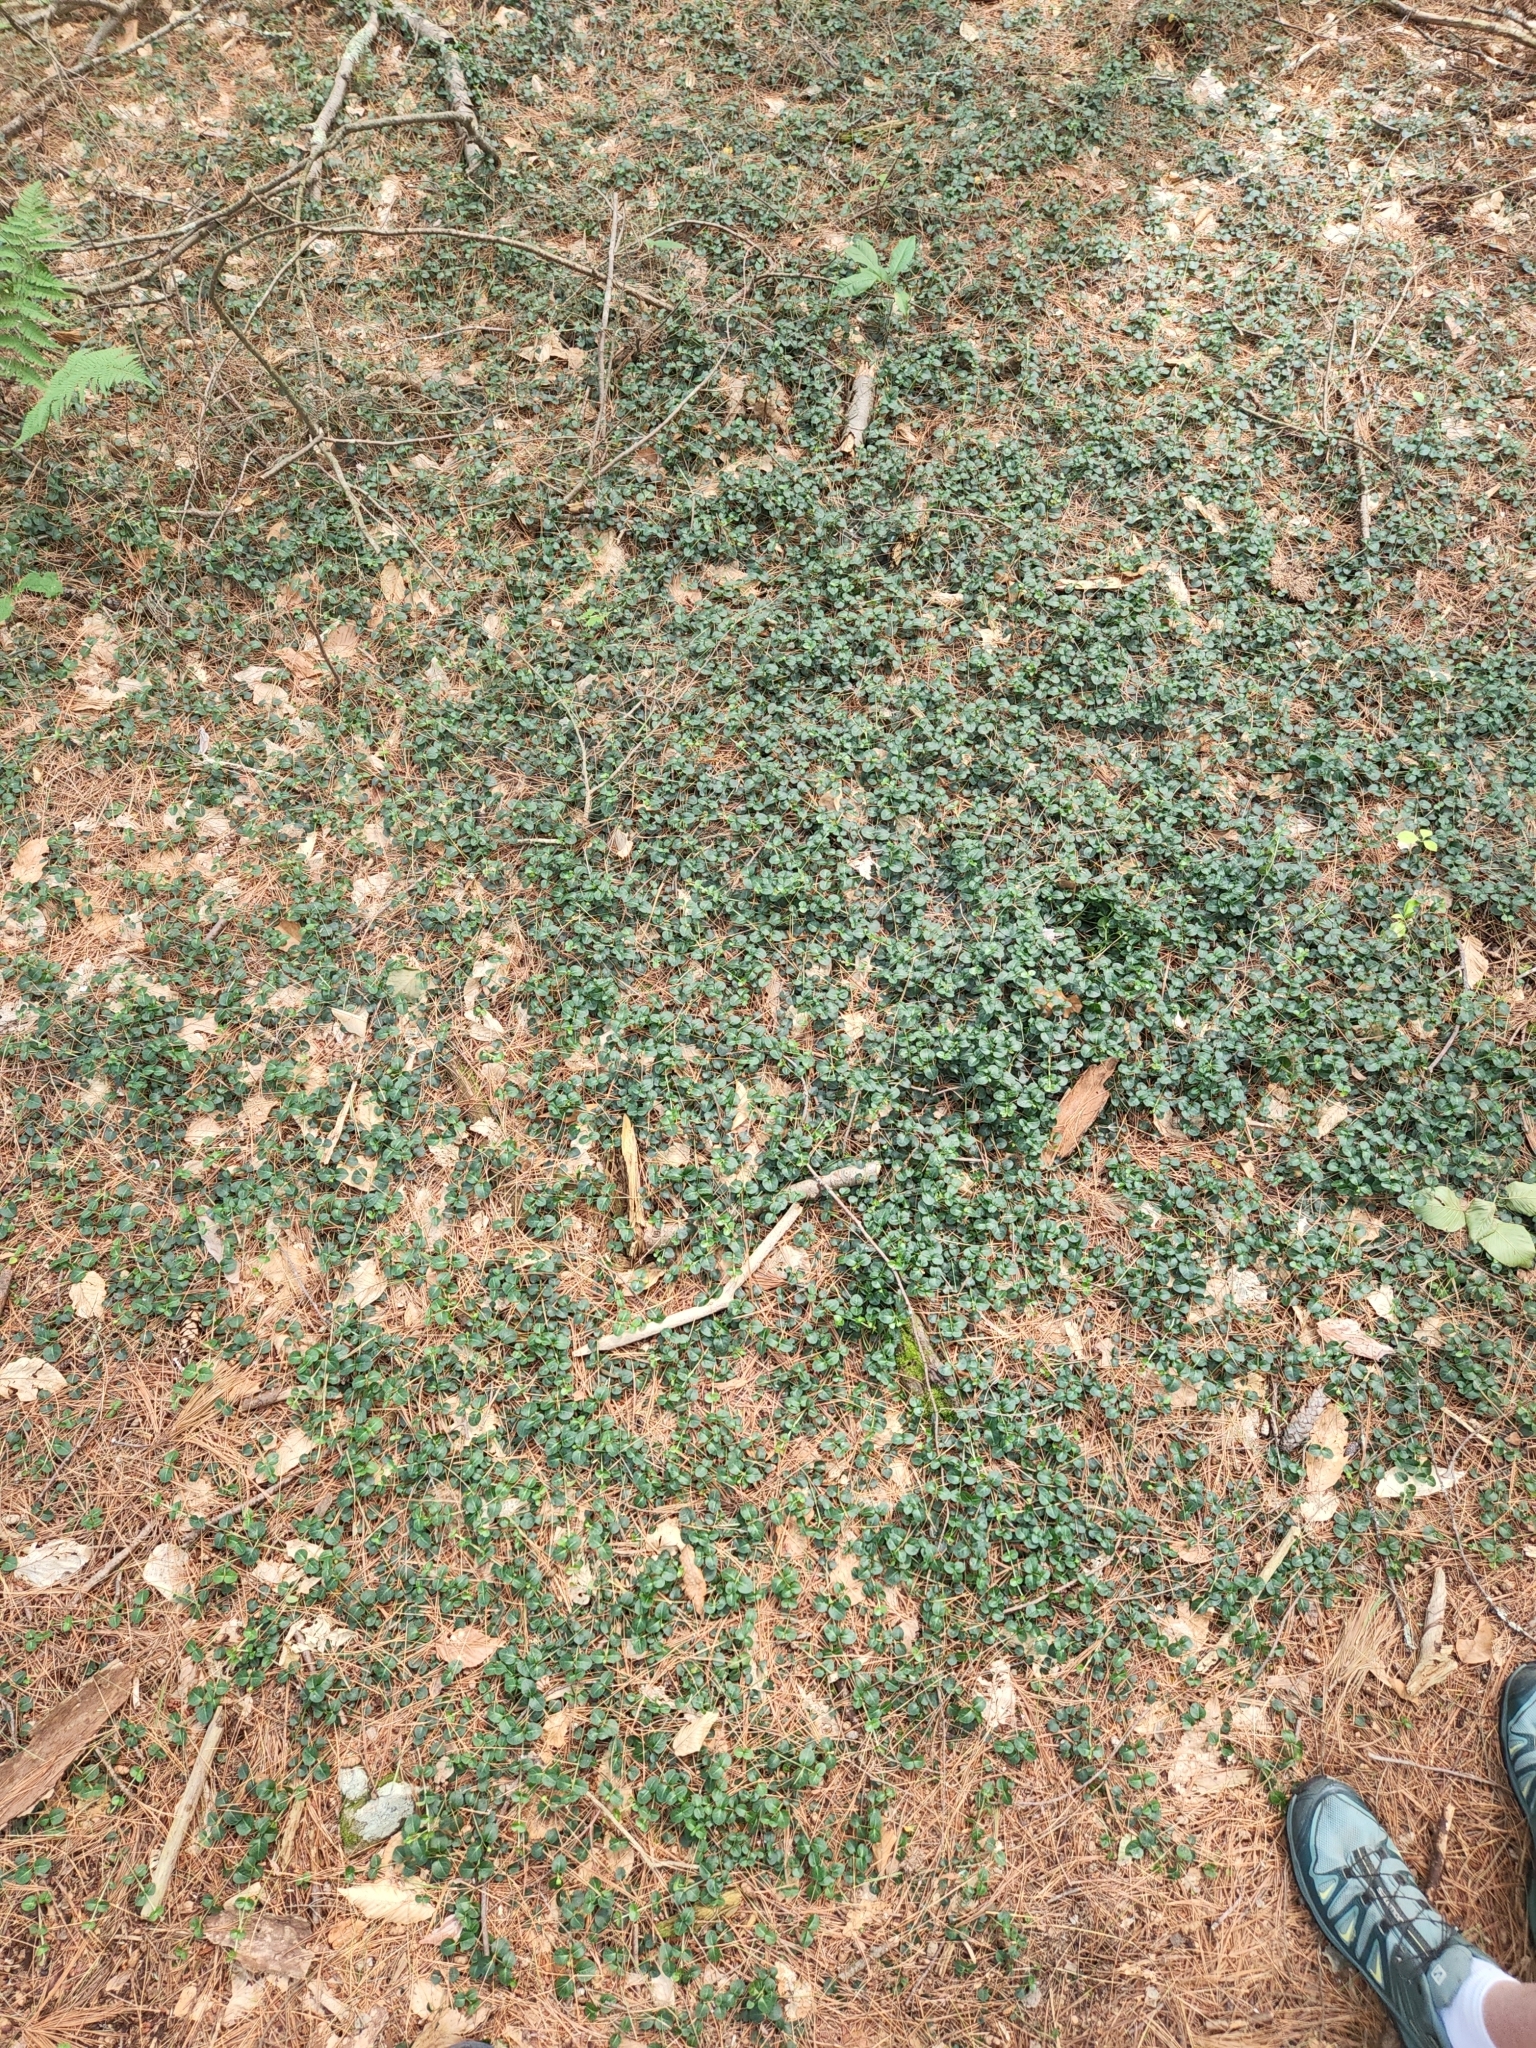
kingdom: Plantae
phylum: Tracheophyta
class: Magnoliopsida
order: Gentianales
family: Rubiaceae
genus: Mitchella
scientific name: Mitchella repens
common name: Partridge-berry
